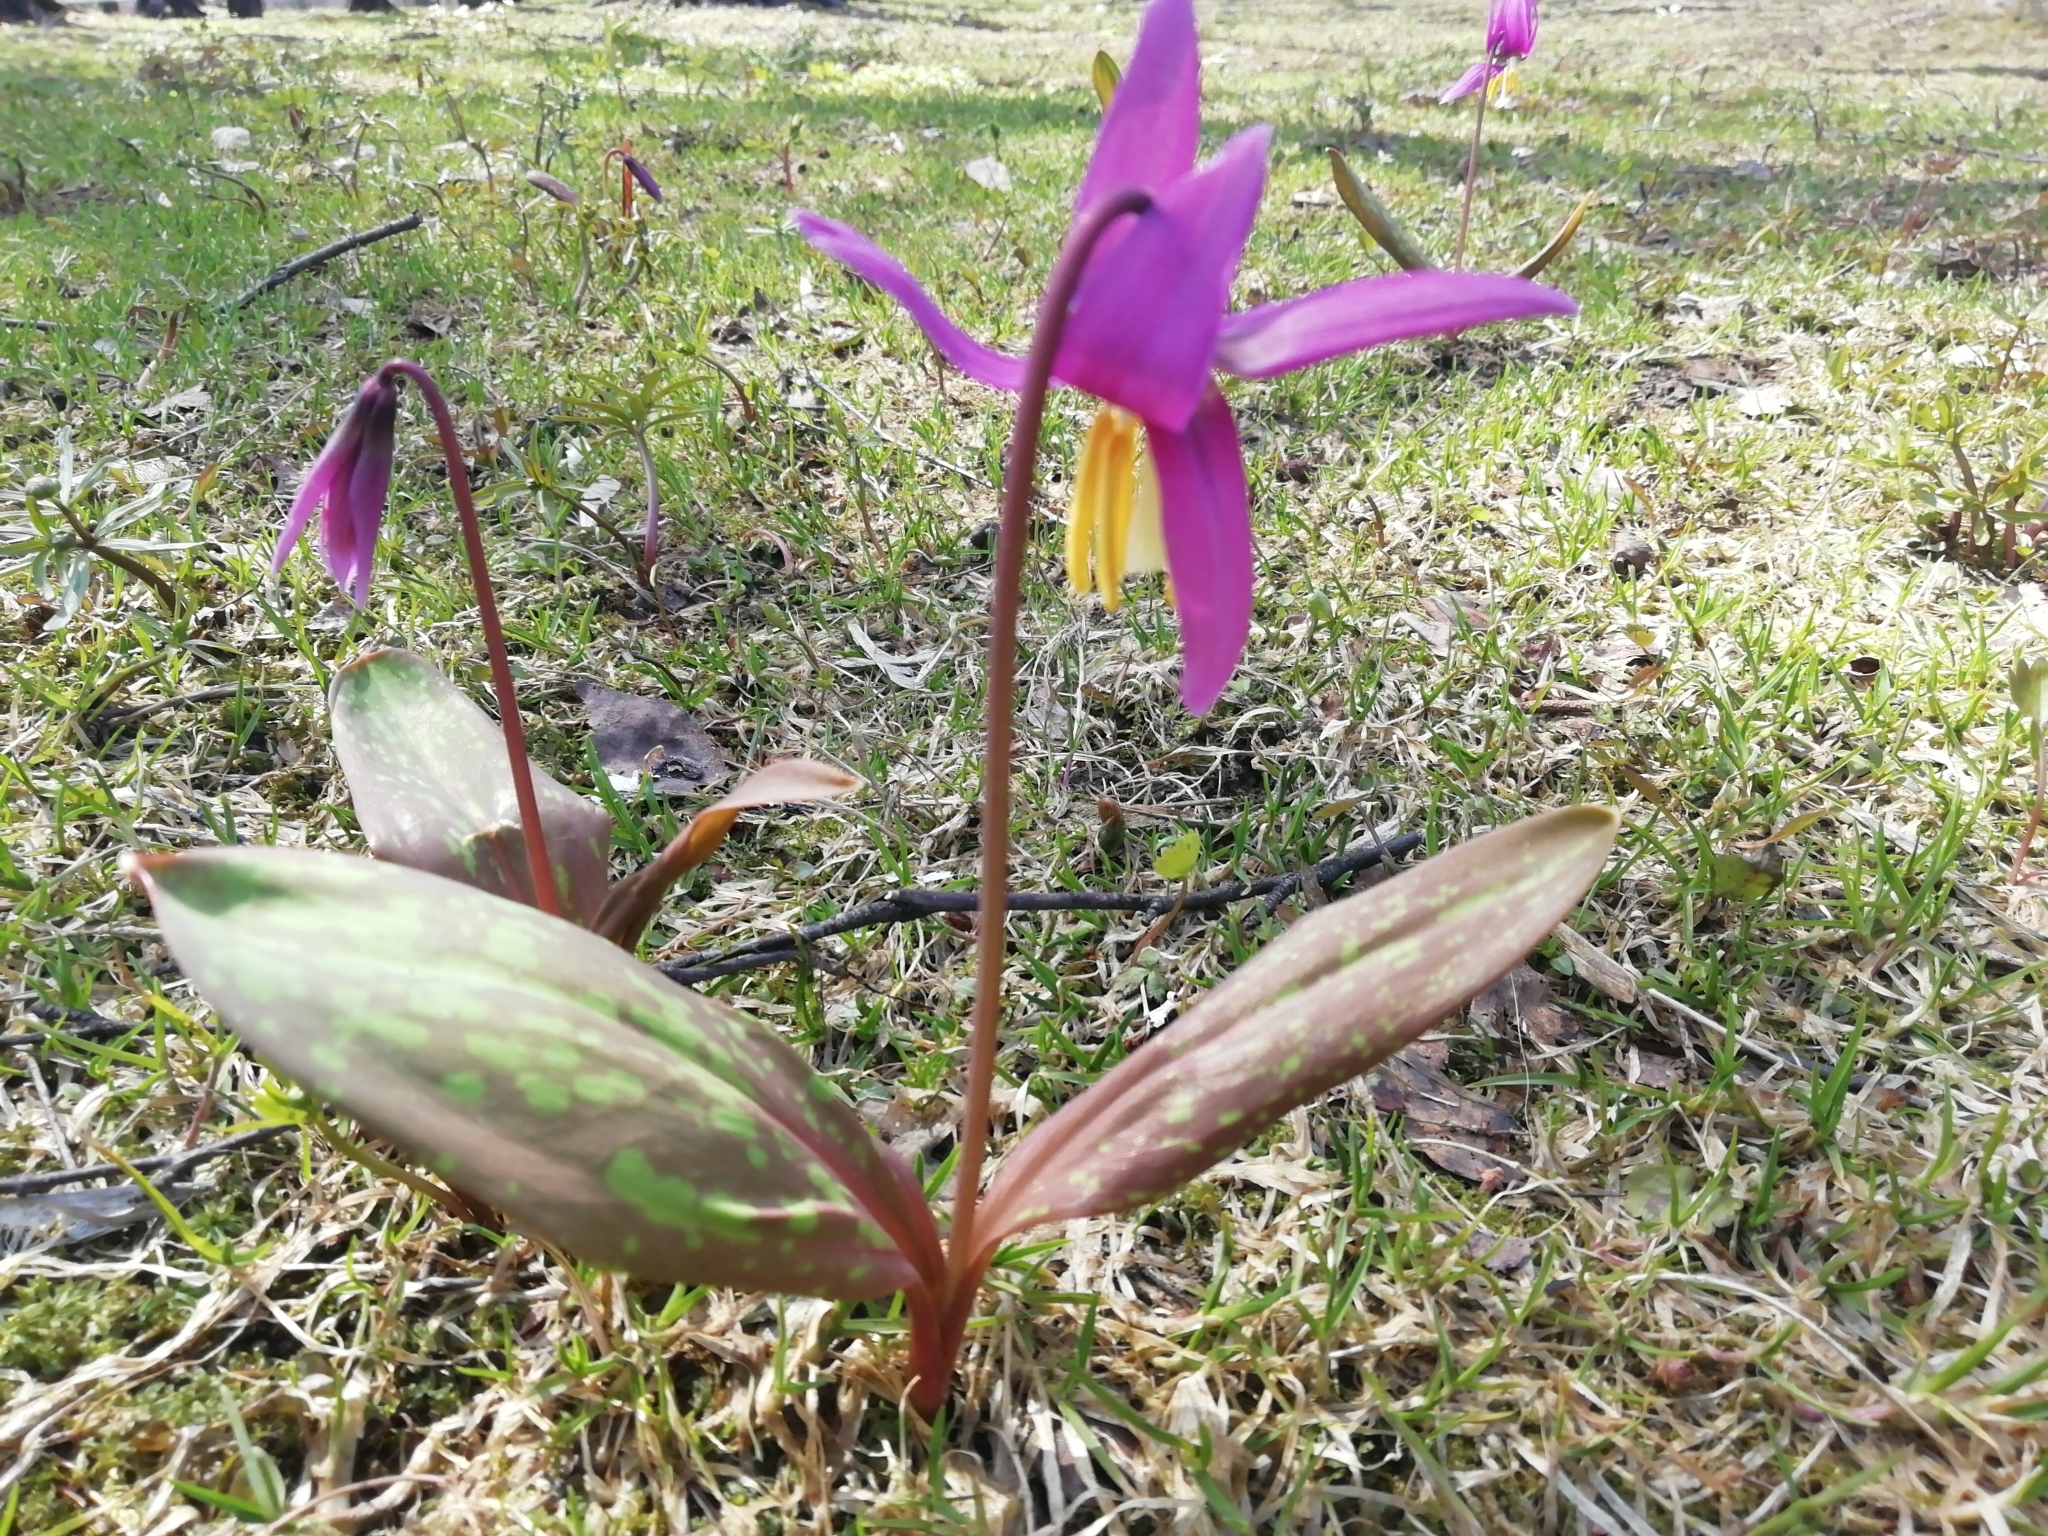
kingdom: Plantae
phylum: Tracheophyta
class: Liliopsida
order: Liliales
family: Liliaceae
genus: Erythronium
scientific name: Erythronium sibiricum
